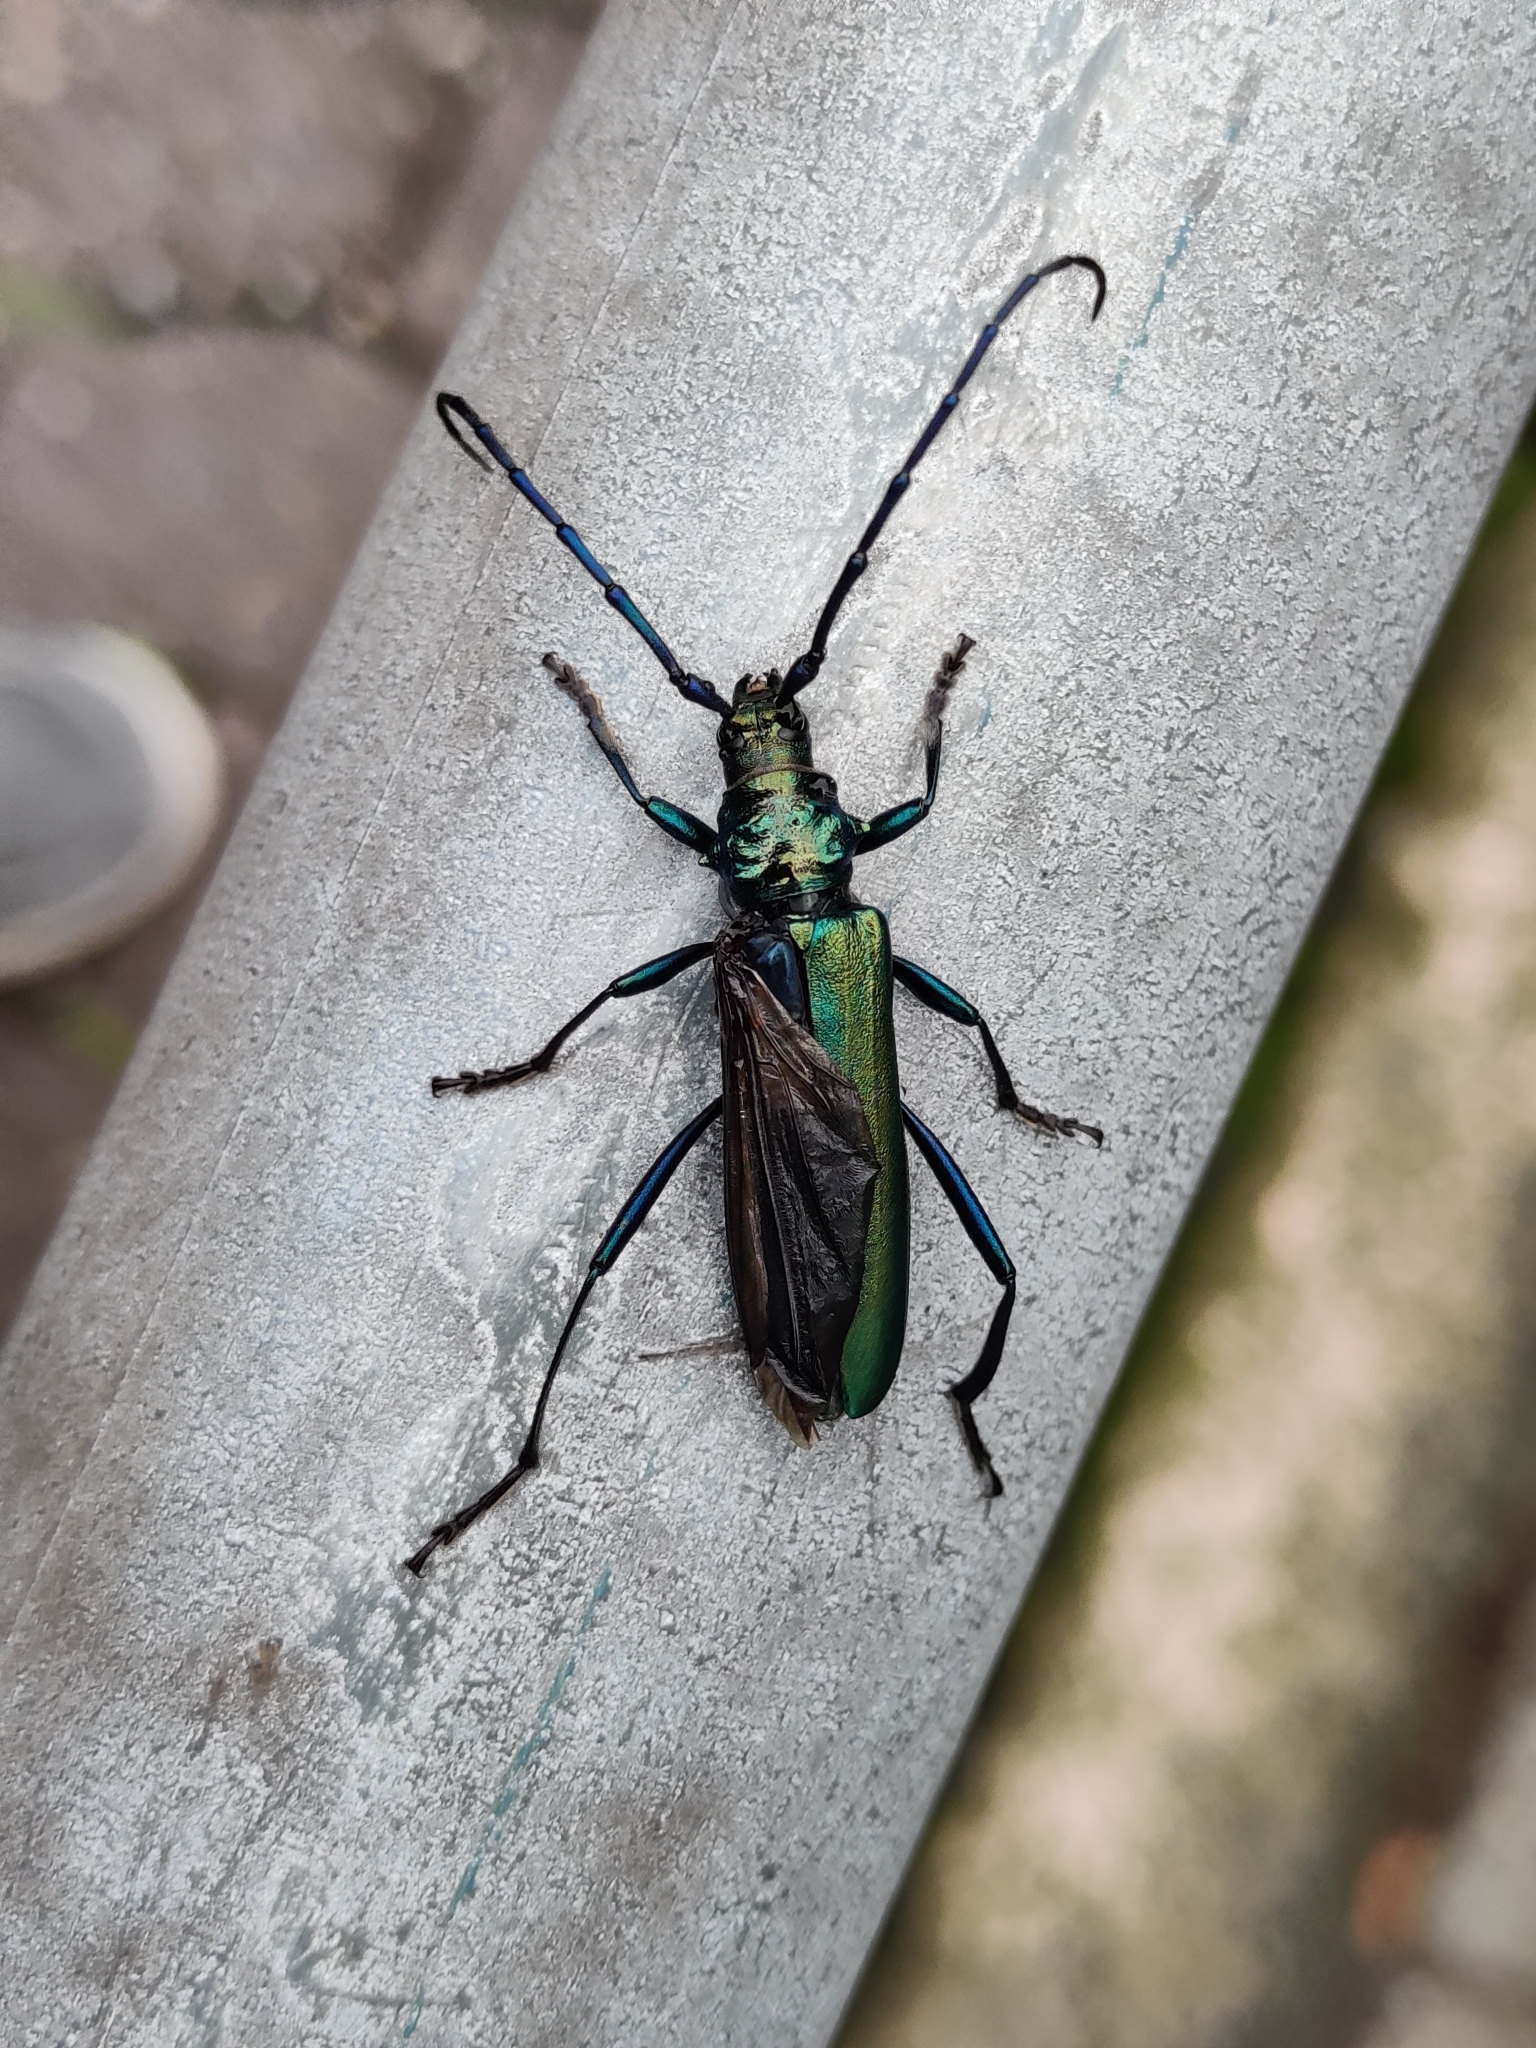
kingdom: Animalia
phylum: Arthropoda
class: Insecta
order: Coleoptera
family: Cerambycidae
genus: Aromia
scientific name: Aromia moschata
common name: Musk beetle
